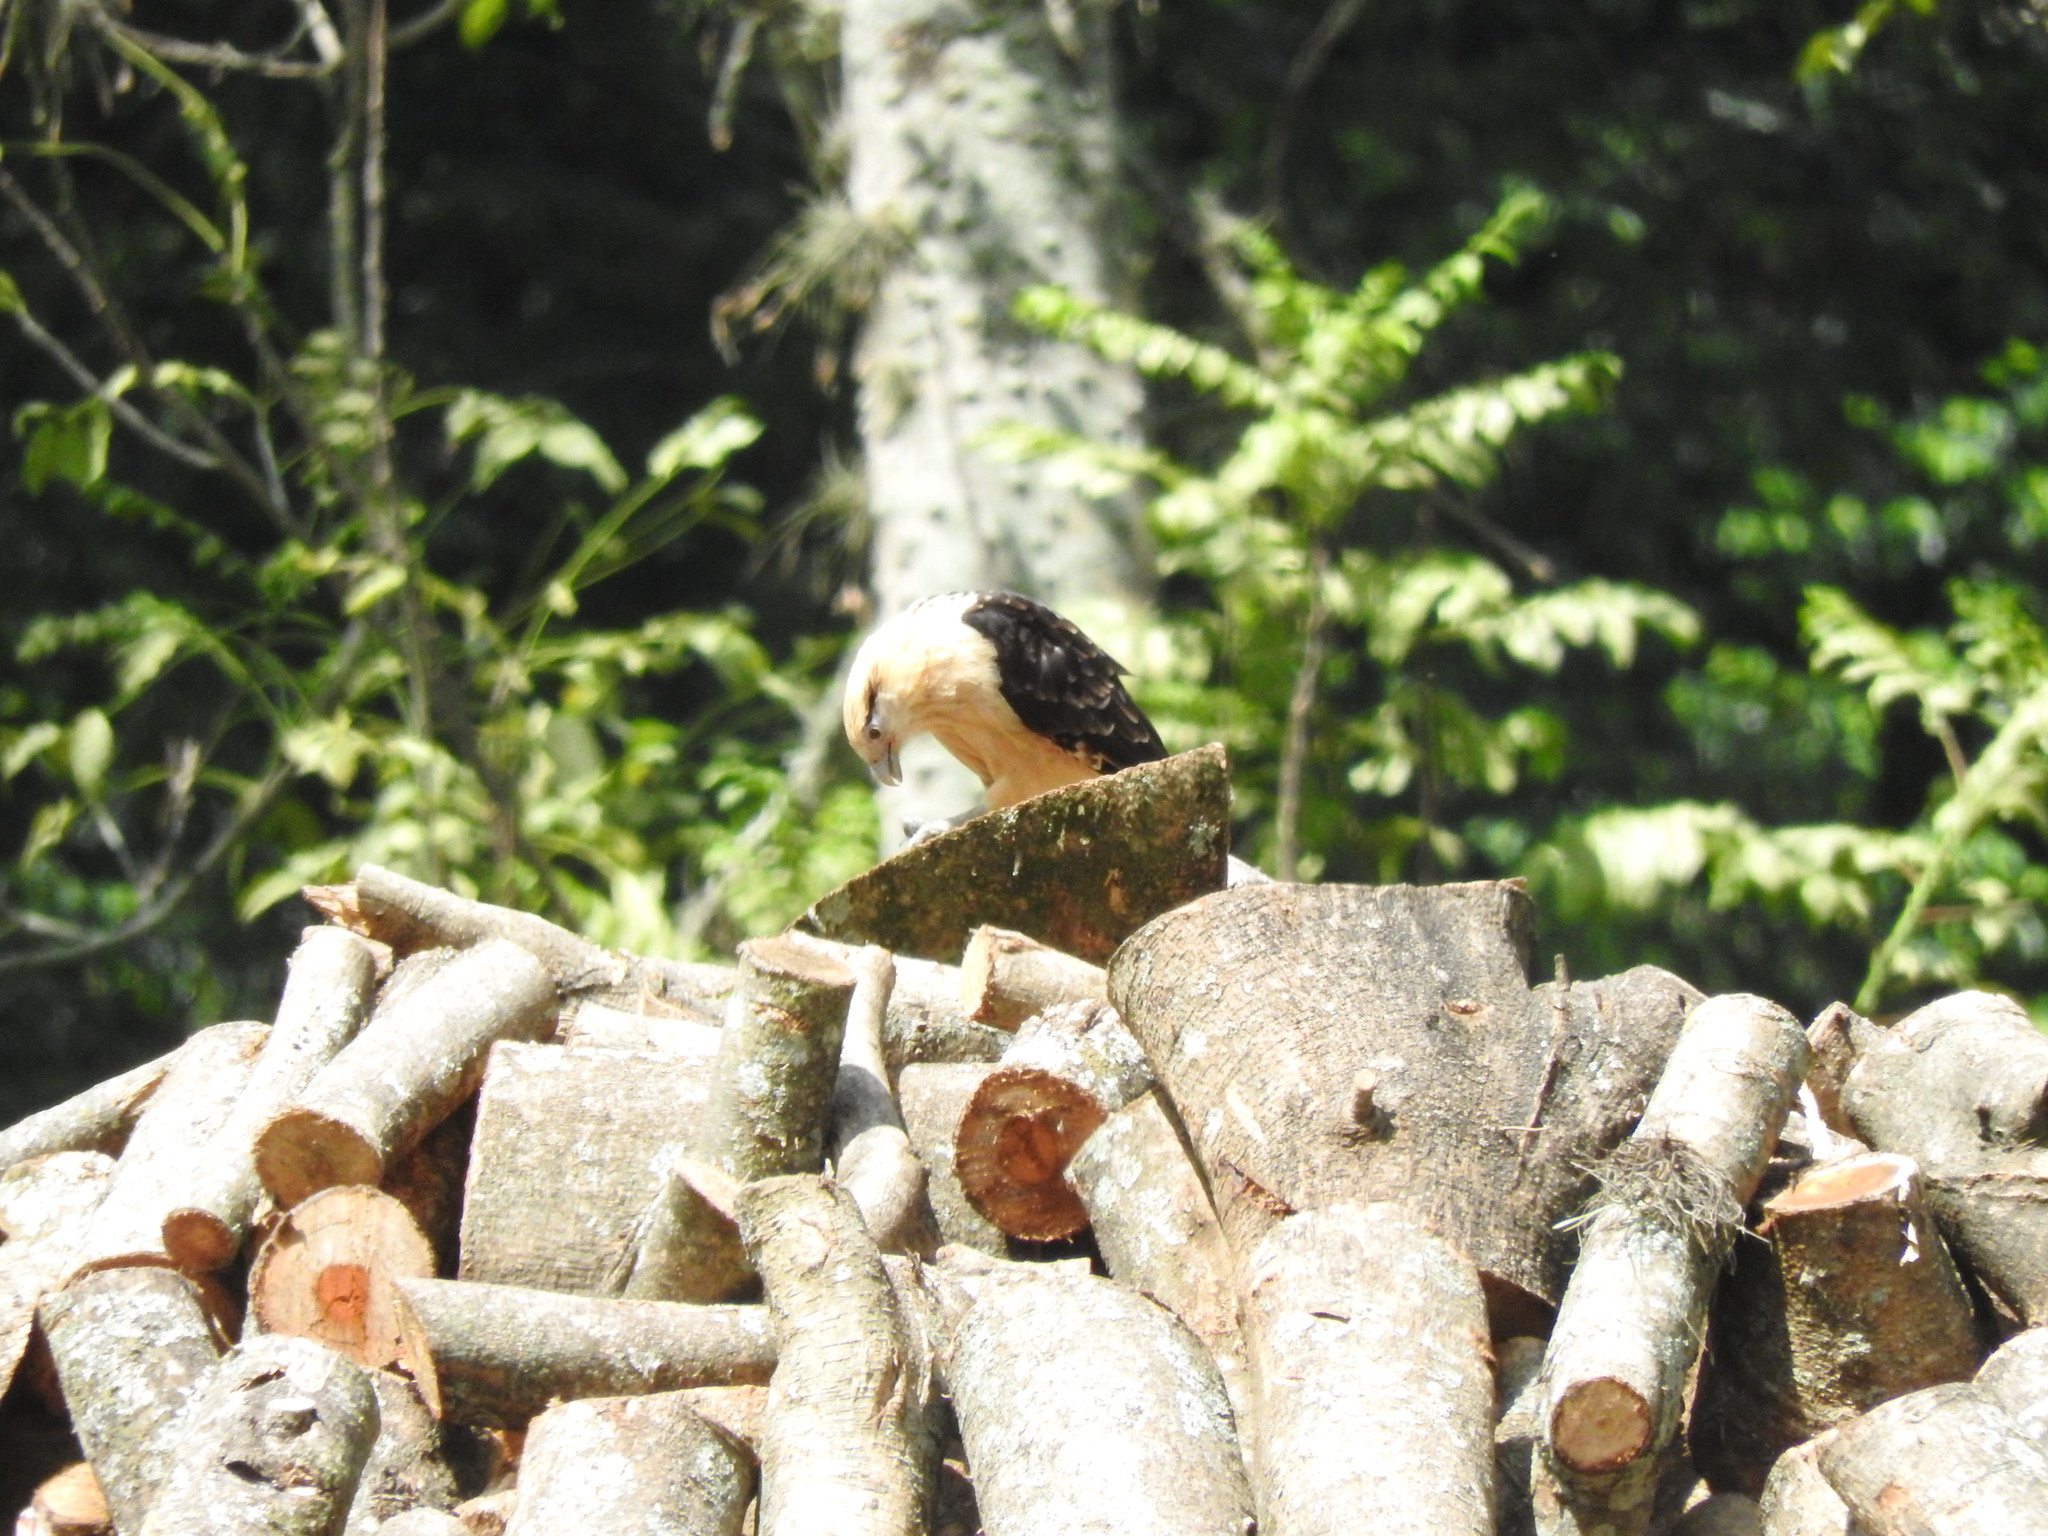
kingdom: Animalia
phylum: Chordata
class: Aves
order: Falconiformes
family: Falconidae
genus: Daptrius
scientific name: Daptrius
